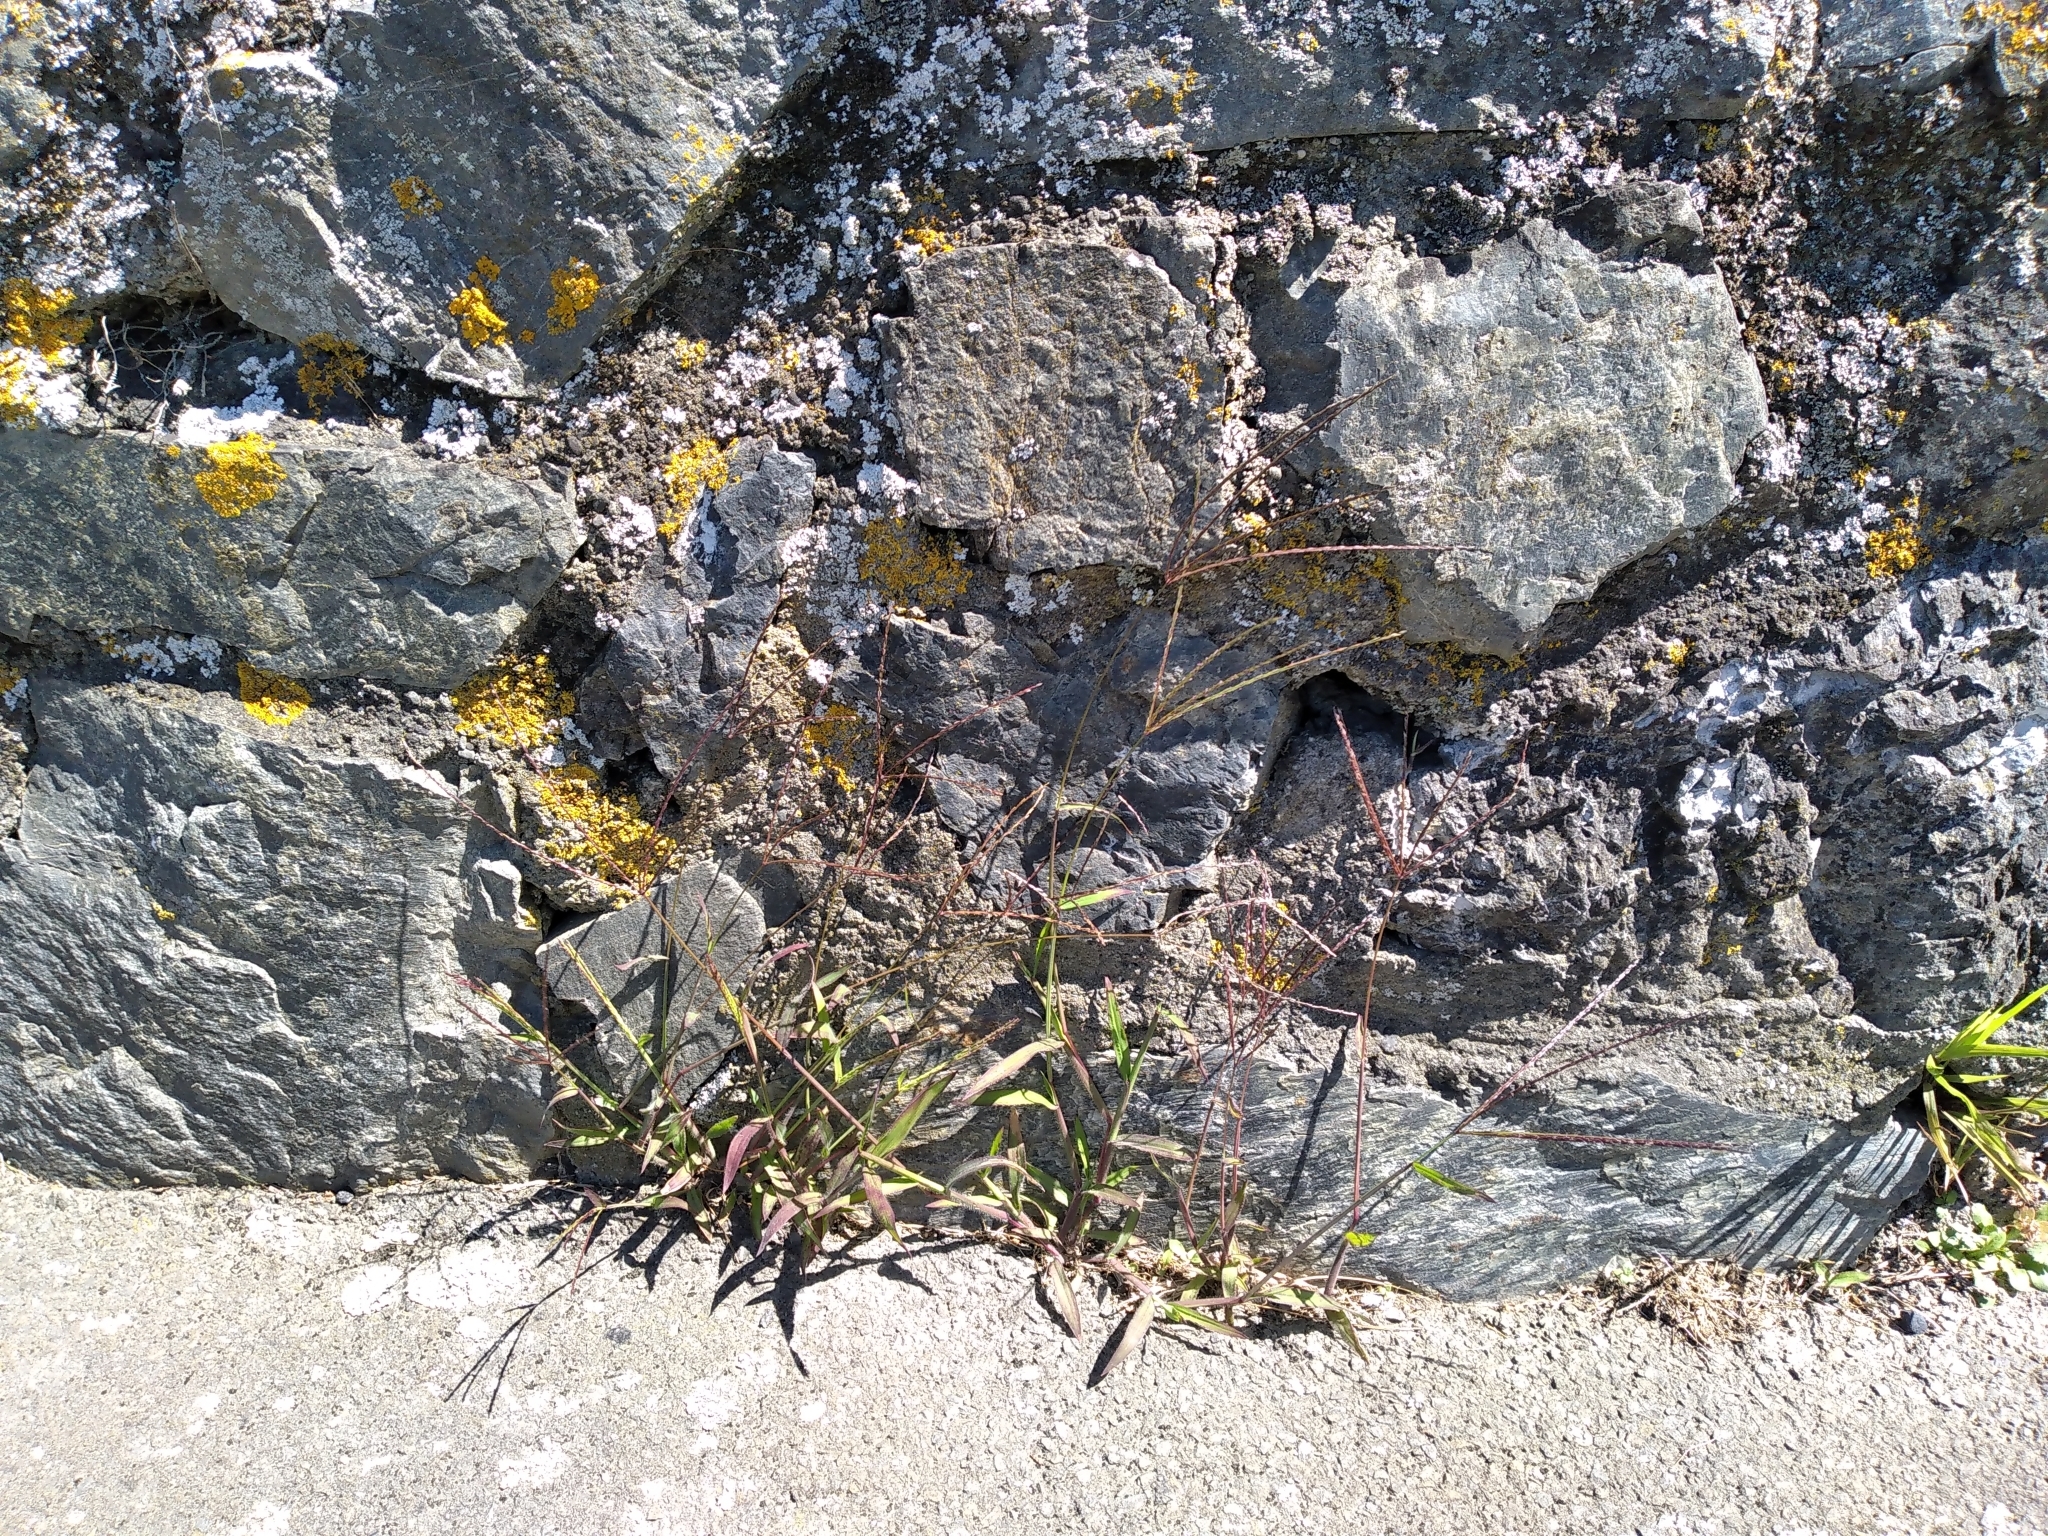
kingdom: Plantae
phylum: Tracheophyta
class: Liliopsida
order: Poales
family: Poaceae
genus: Digitaria
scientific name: Digitaria sanguinalis
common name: Hairy crabgrass
